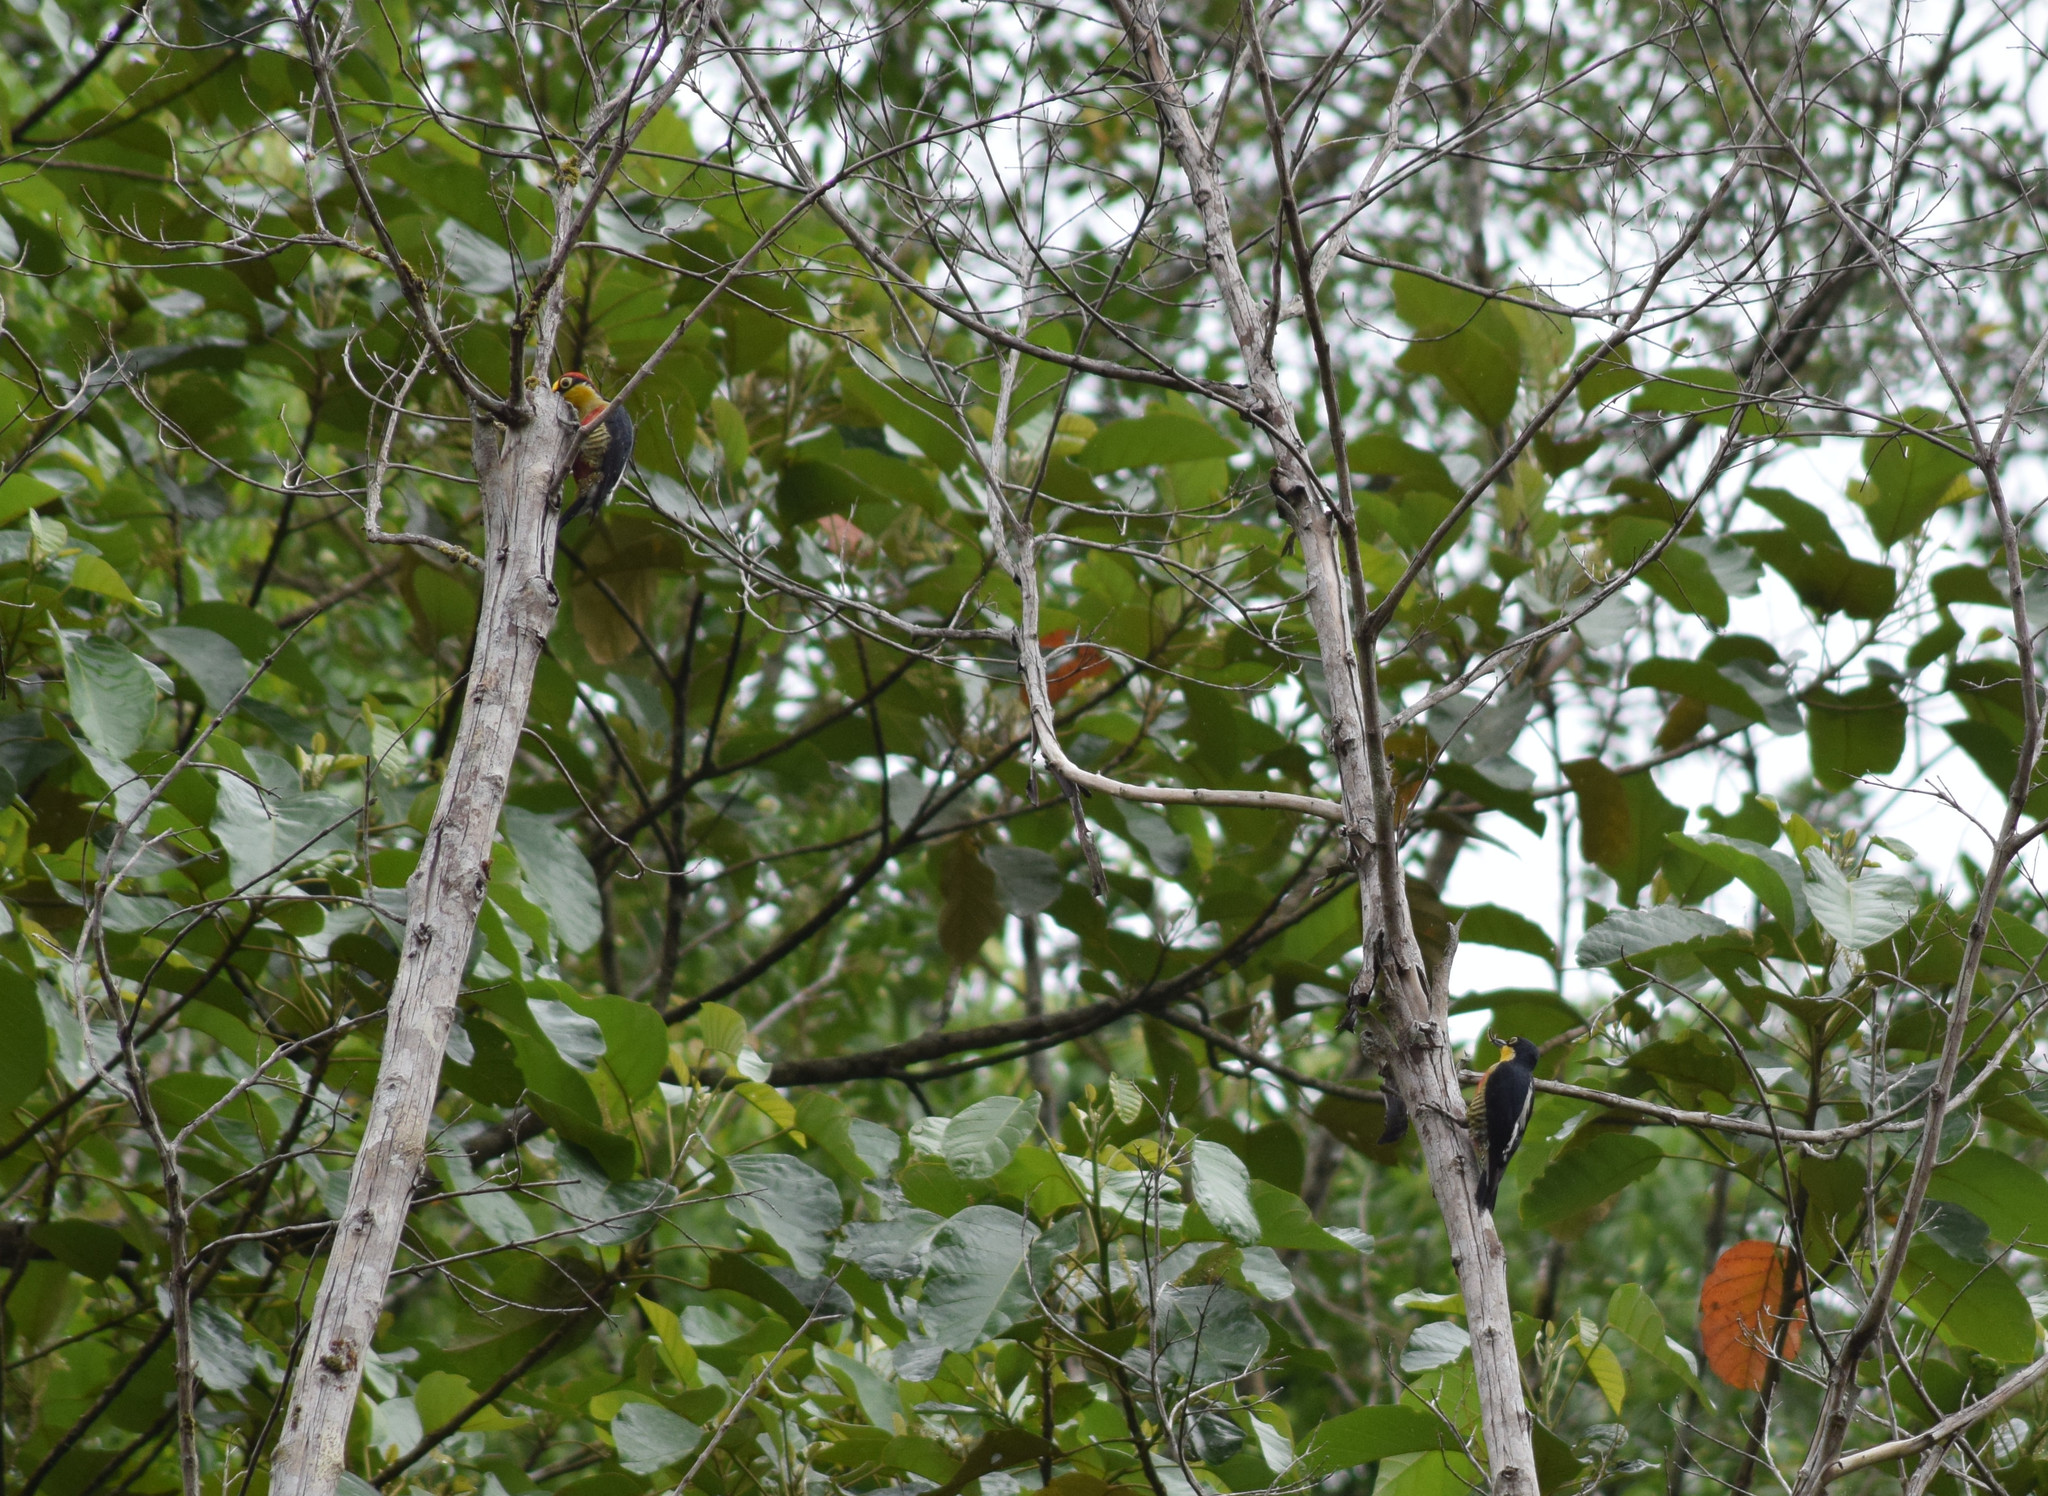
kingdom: Animalia
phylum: Chordata
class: Aves
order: Piciformes
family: Picidae
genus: Melanerpes
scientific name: Melanerpes flavifrons
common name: Yellow-fronted woodpecker
